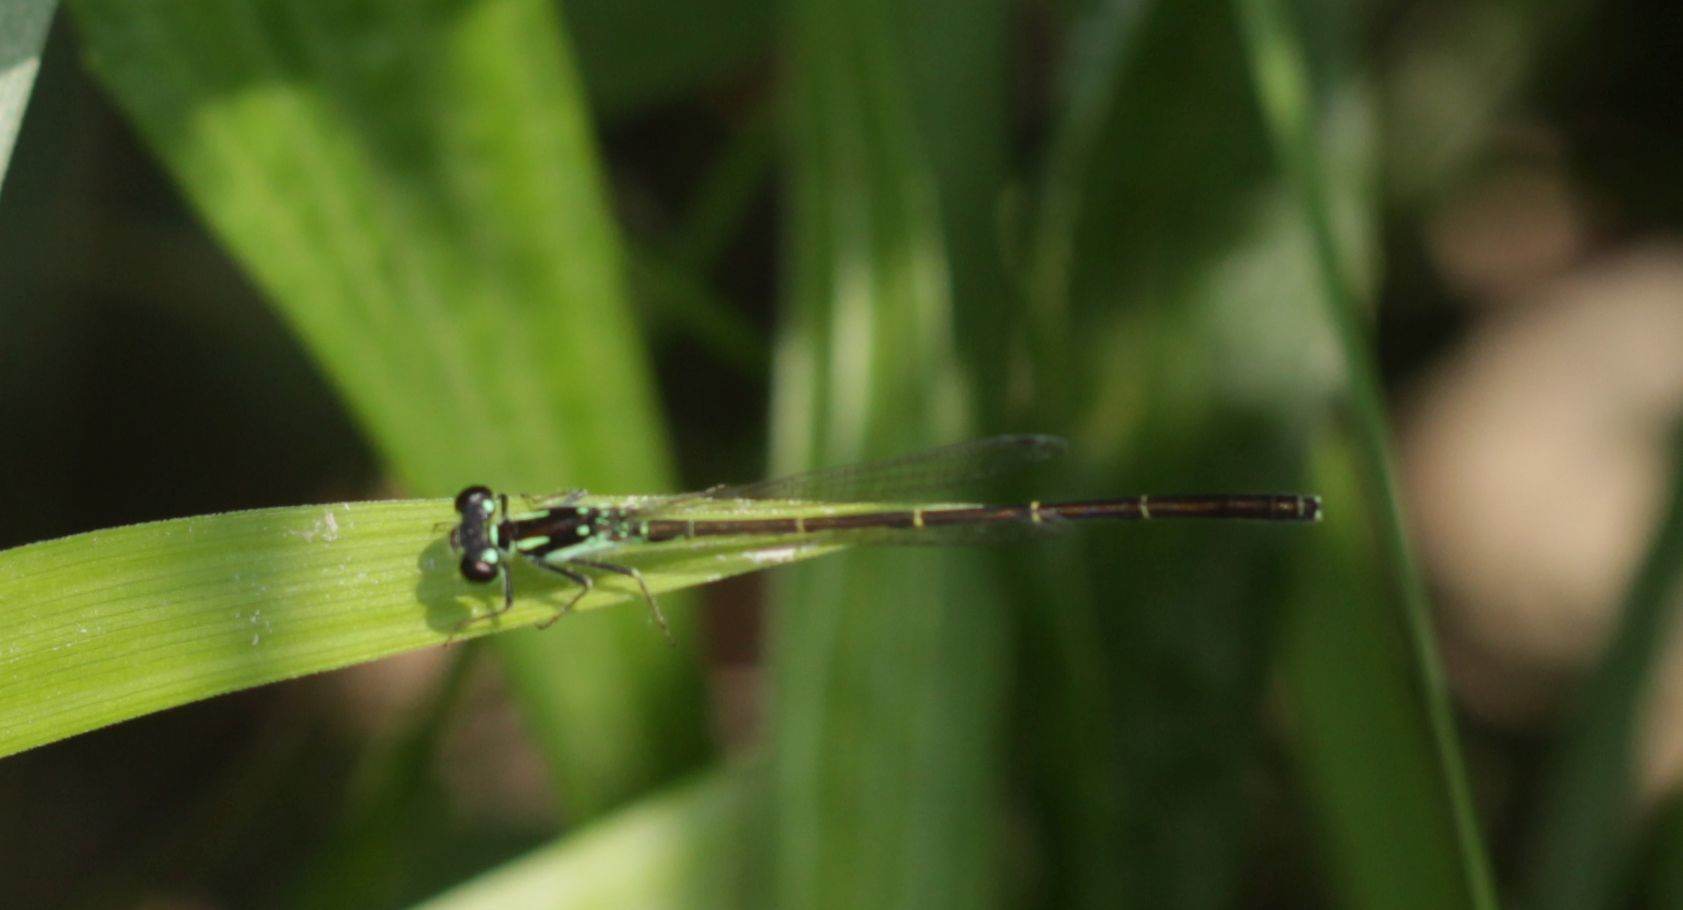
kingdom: Animalia
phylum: Arthropoda
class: Insecta
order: Odonata
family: Coenagrionidae
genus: Ischnura
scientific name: Ischnura posita
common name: Fragile forktail
